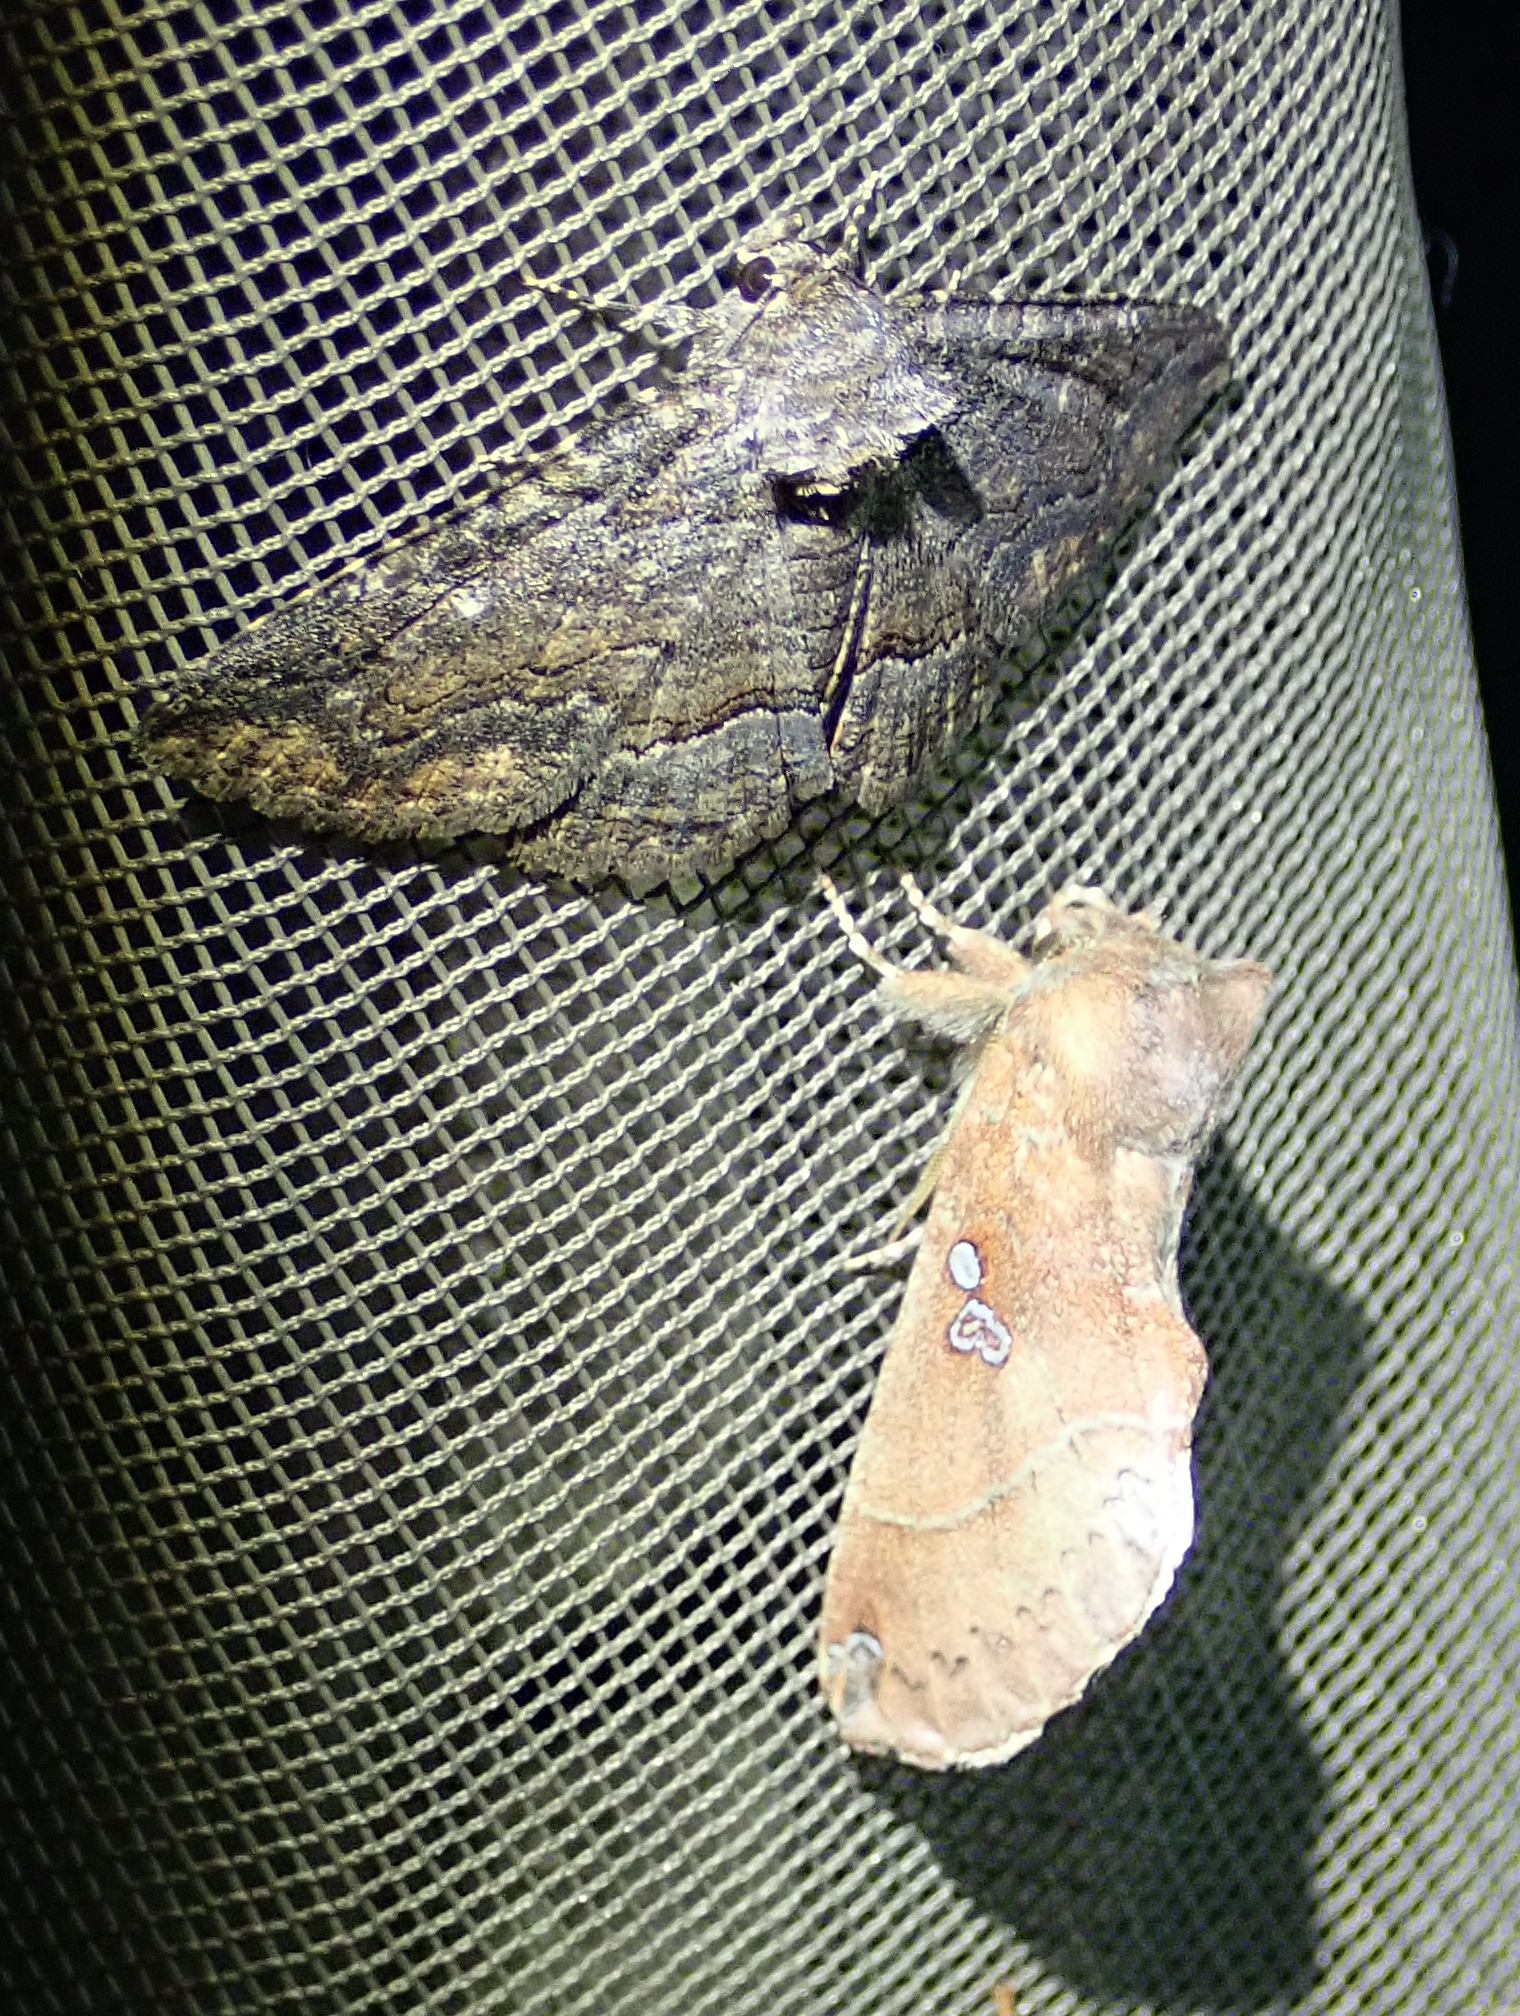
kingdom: Animalia
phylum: Arthropoda
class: Insecta
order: Lepidoptera
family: Notodontidae
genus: Pseudhapigia
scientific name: Pseudhapigia brunnea
